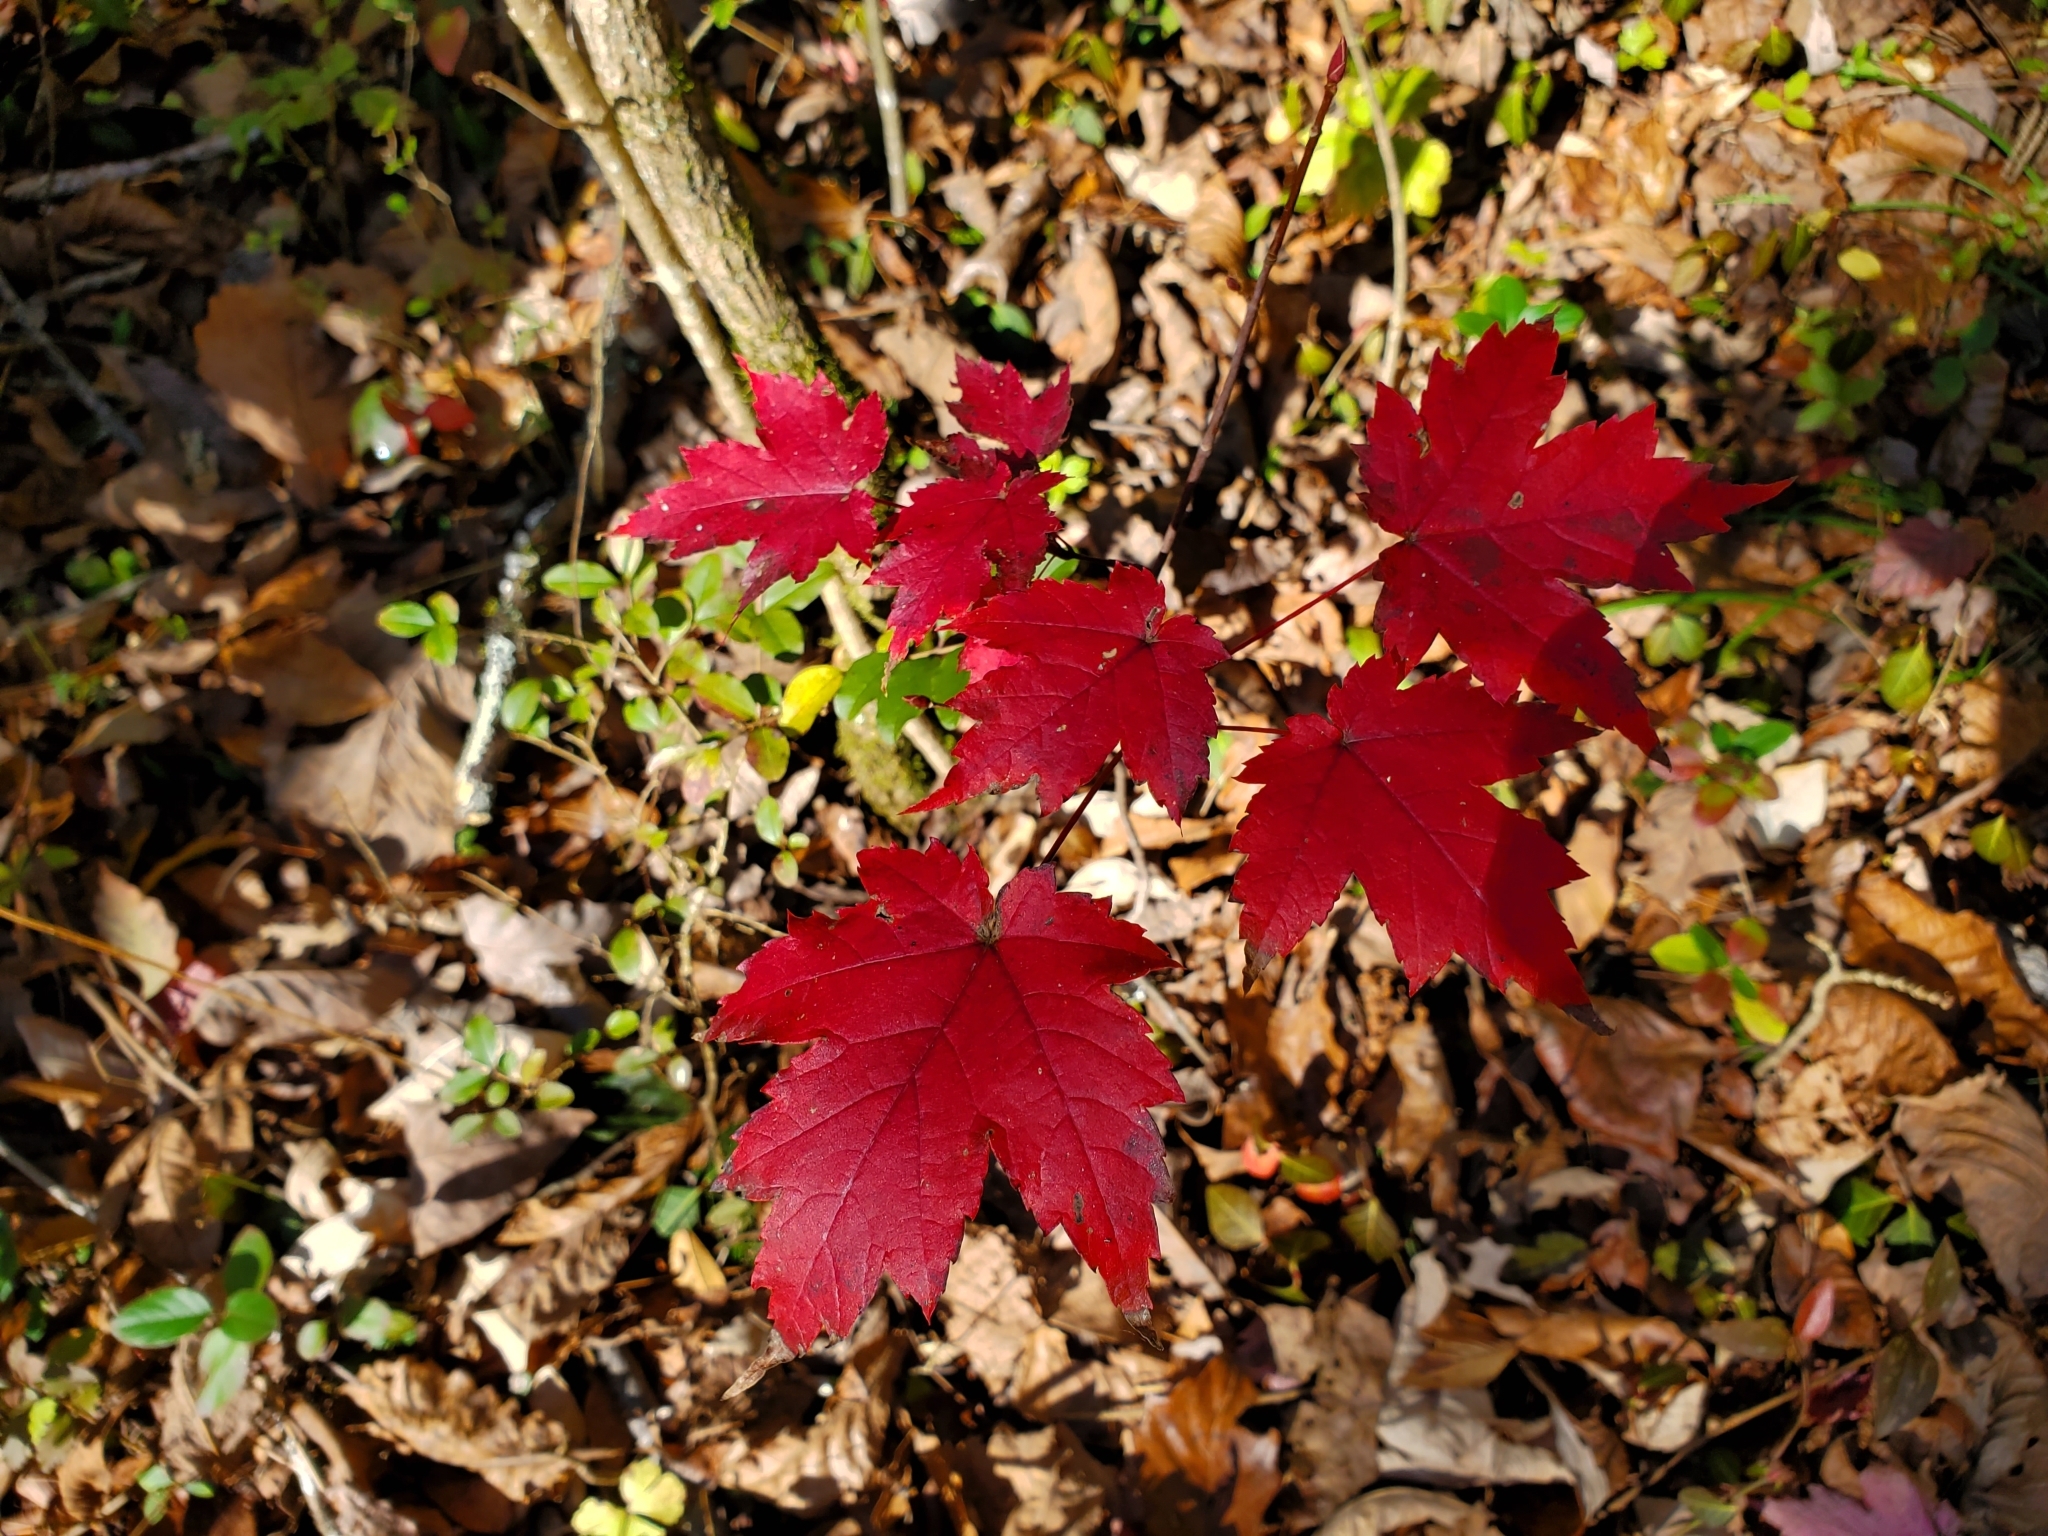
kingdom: Plantae
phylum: Tracheophyta
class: Magnoliopsida
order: Sapindales
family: Sapindaceae
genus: Acer
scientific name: Acer rubrum
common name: Red maple
